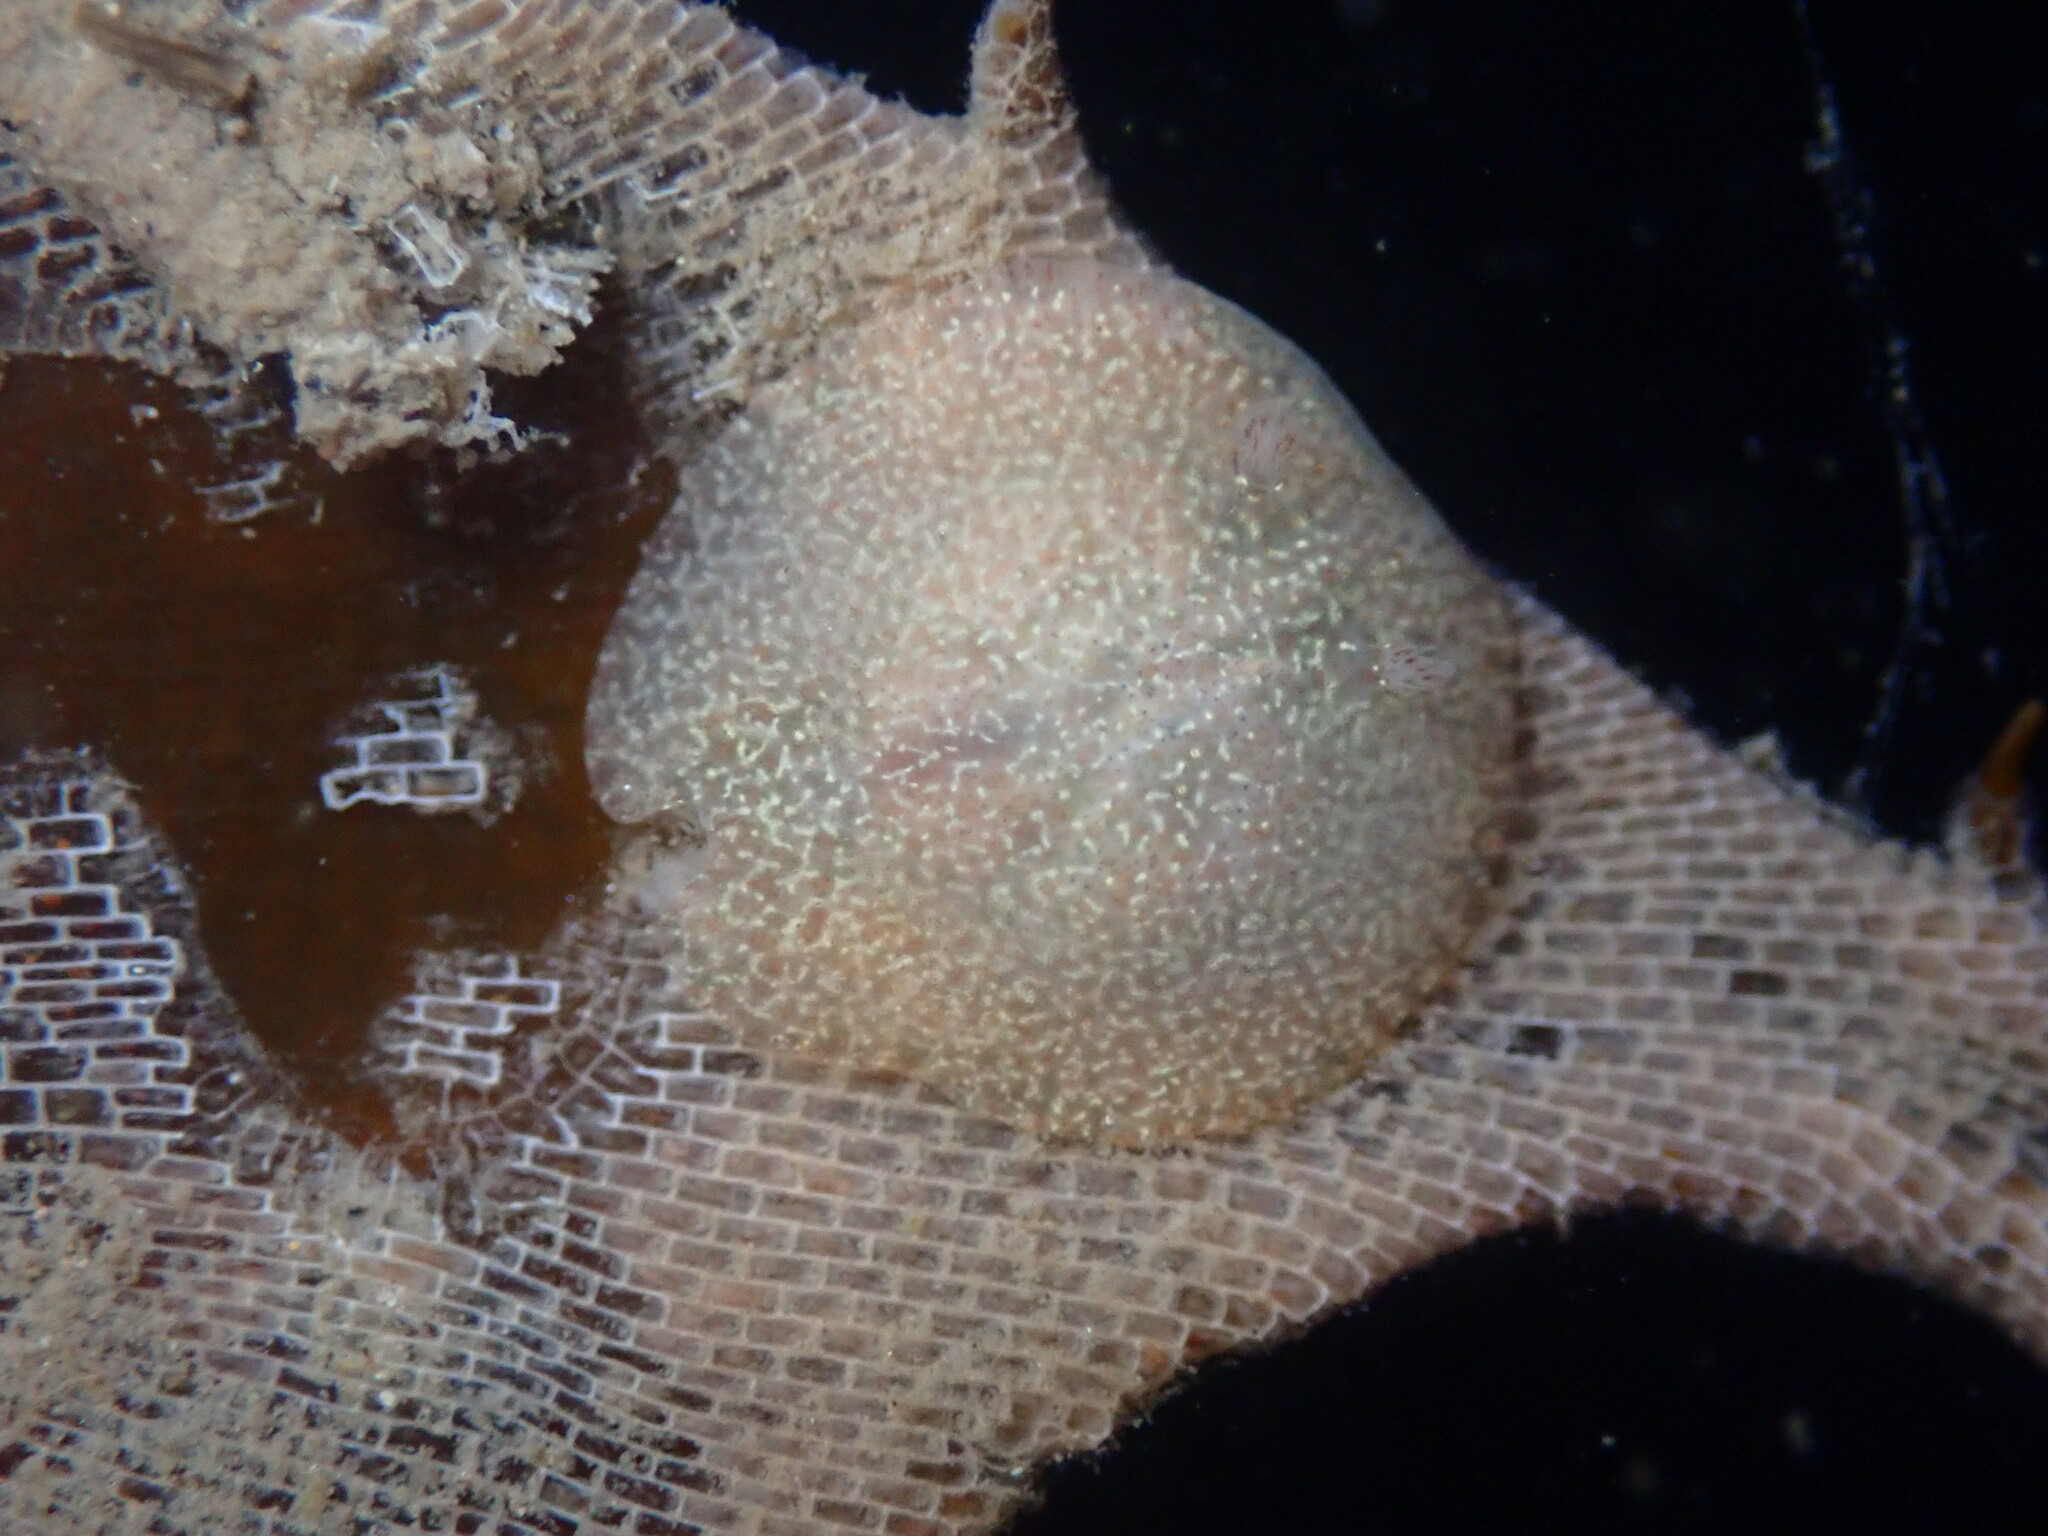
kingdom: Animalia
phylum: Mollusca
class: Gastropoda
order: Nudibranchia
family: Corambidae
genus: Corambe
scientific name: Corambe pacifica
